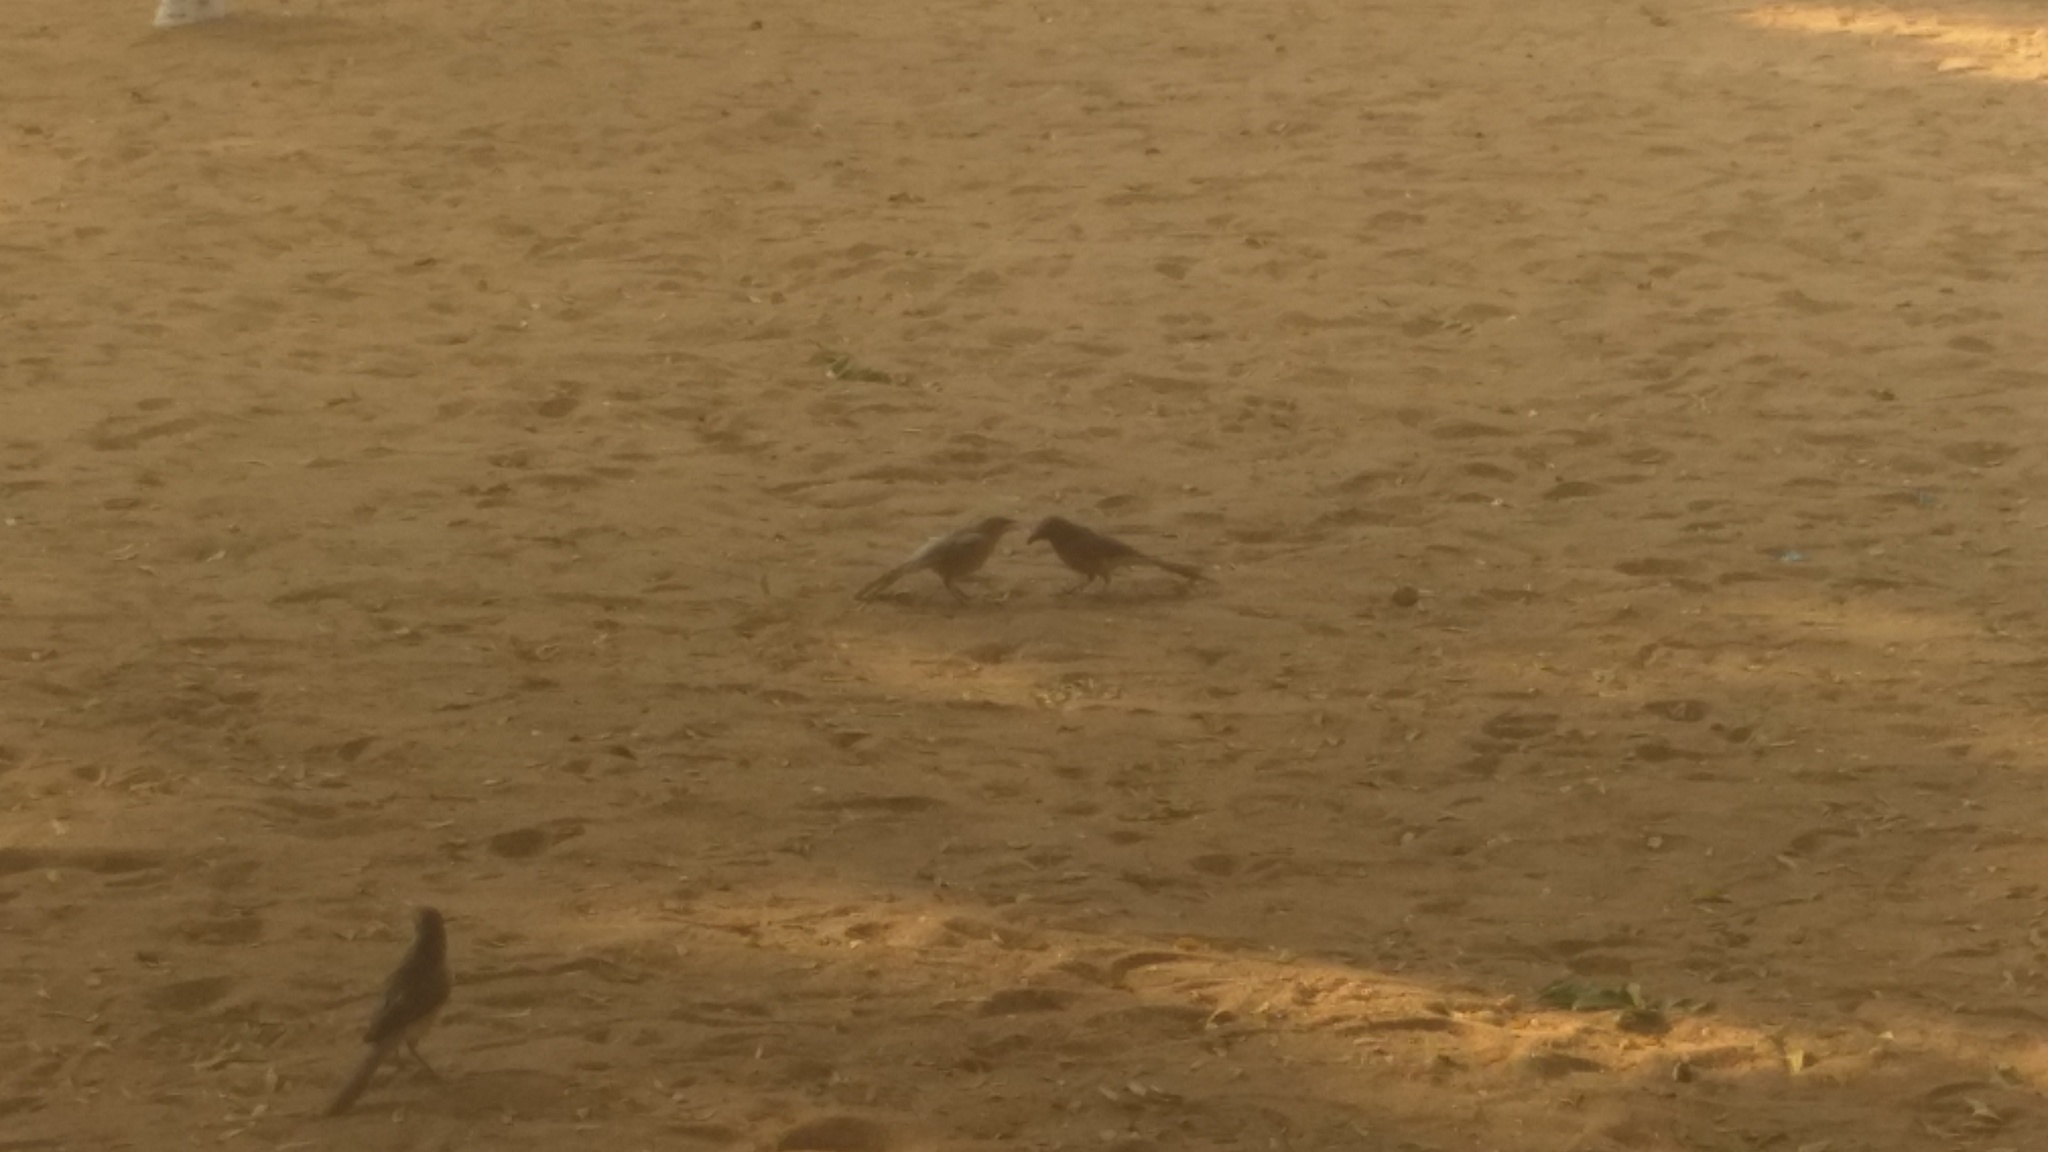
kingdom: Animalia
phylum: Chordata
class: Aves
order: Passeriformes
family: Leiothrichidae
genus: Turdoides
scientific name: Turdoides malcolmi
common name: Large grey babbler
